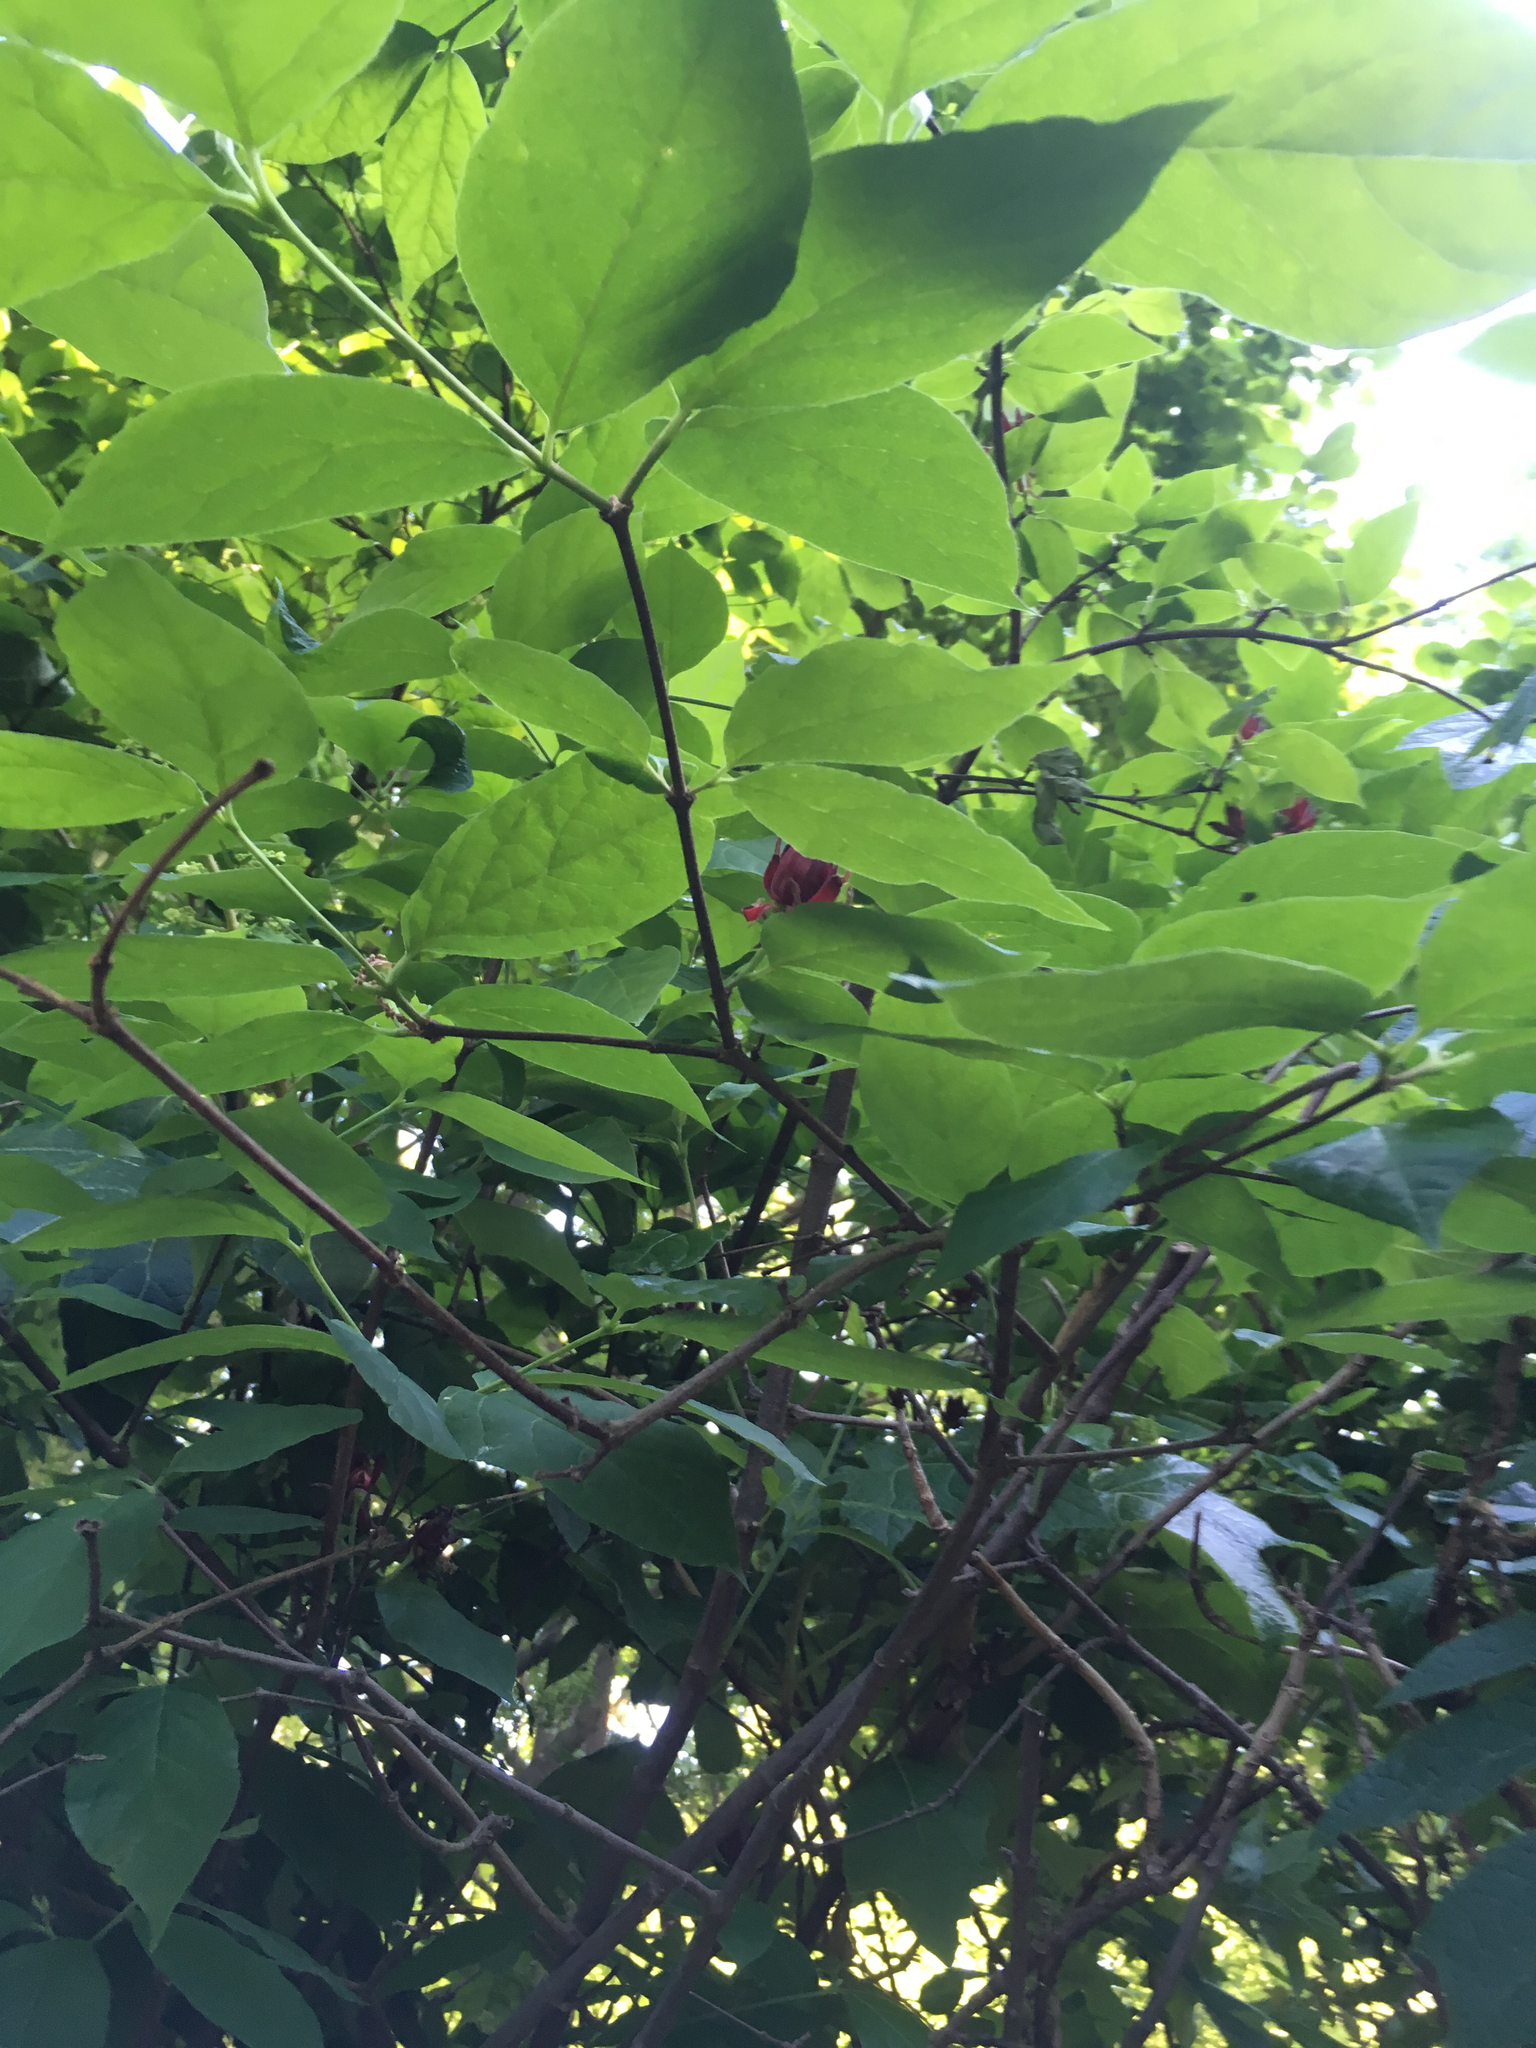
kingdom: Plantae
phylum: Tracheophyta
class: Magnoliopsida
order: Laurales
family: Calycanthaceae
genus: Calycanthus
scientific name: Calycanthus floridus
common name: Carolina-allspice
